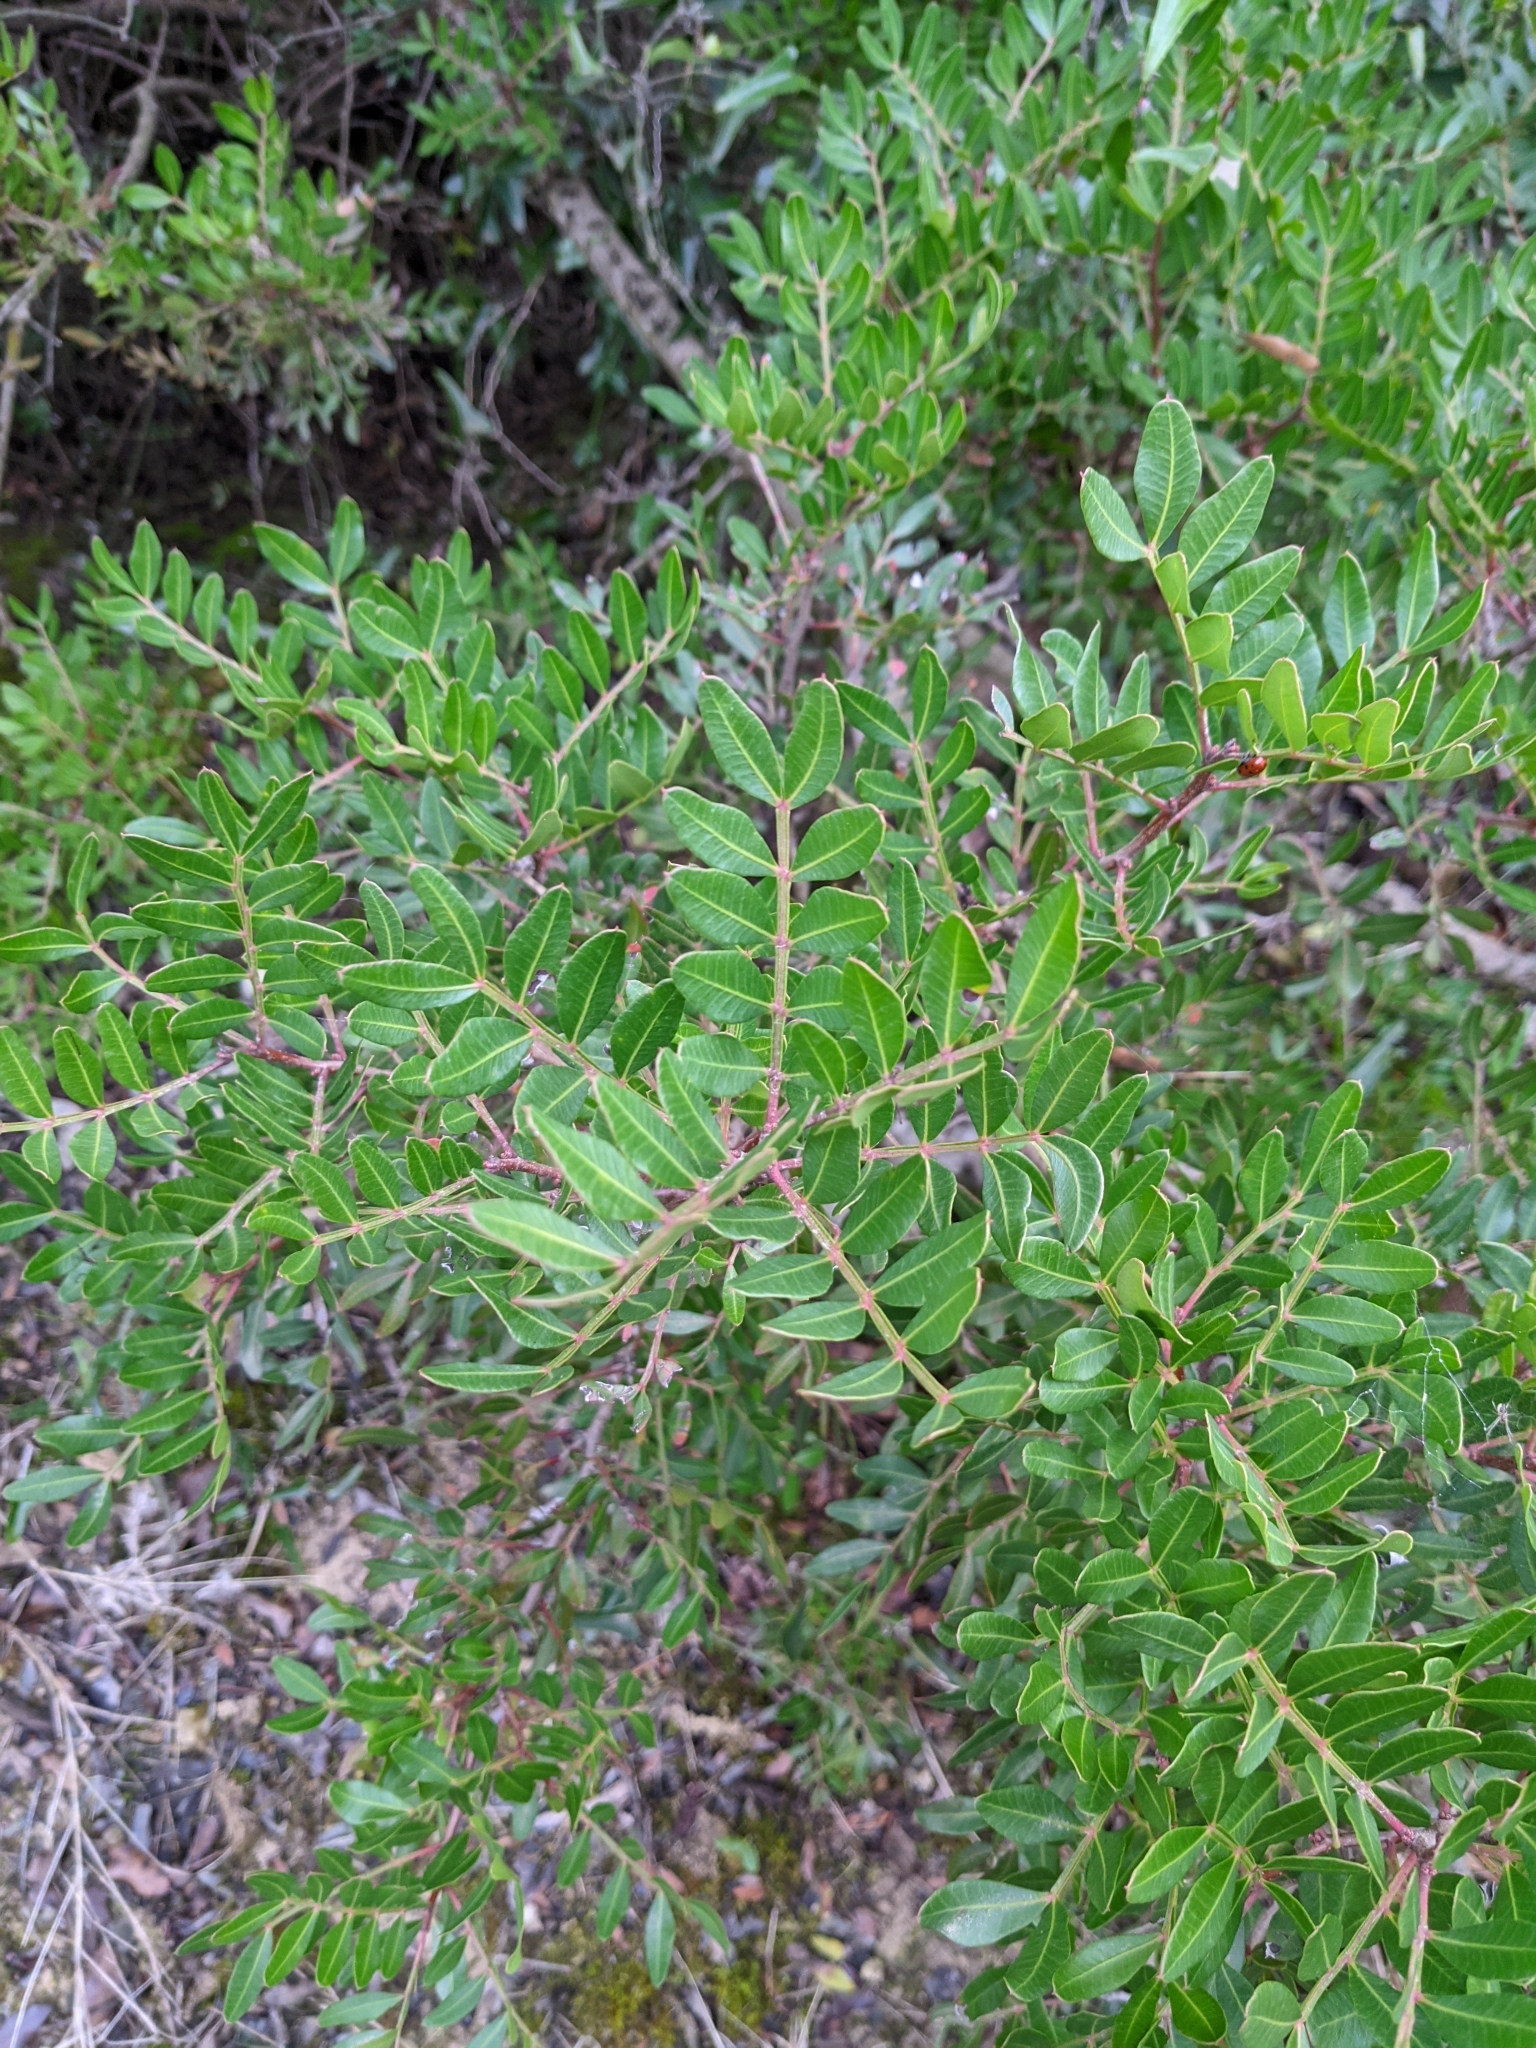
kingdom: Plantae
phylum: Tracheophyta
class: Magnoliopsida
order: Sapindales
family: Anacardiaceae
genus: Pistacia
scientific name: Pistacia lentiscus
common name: Lentisk
